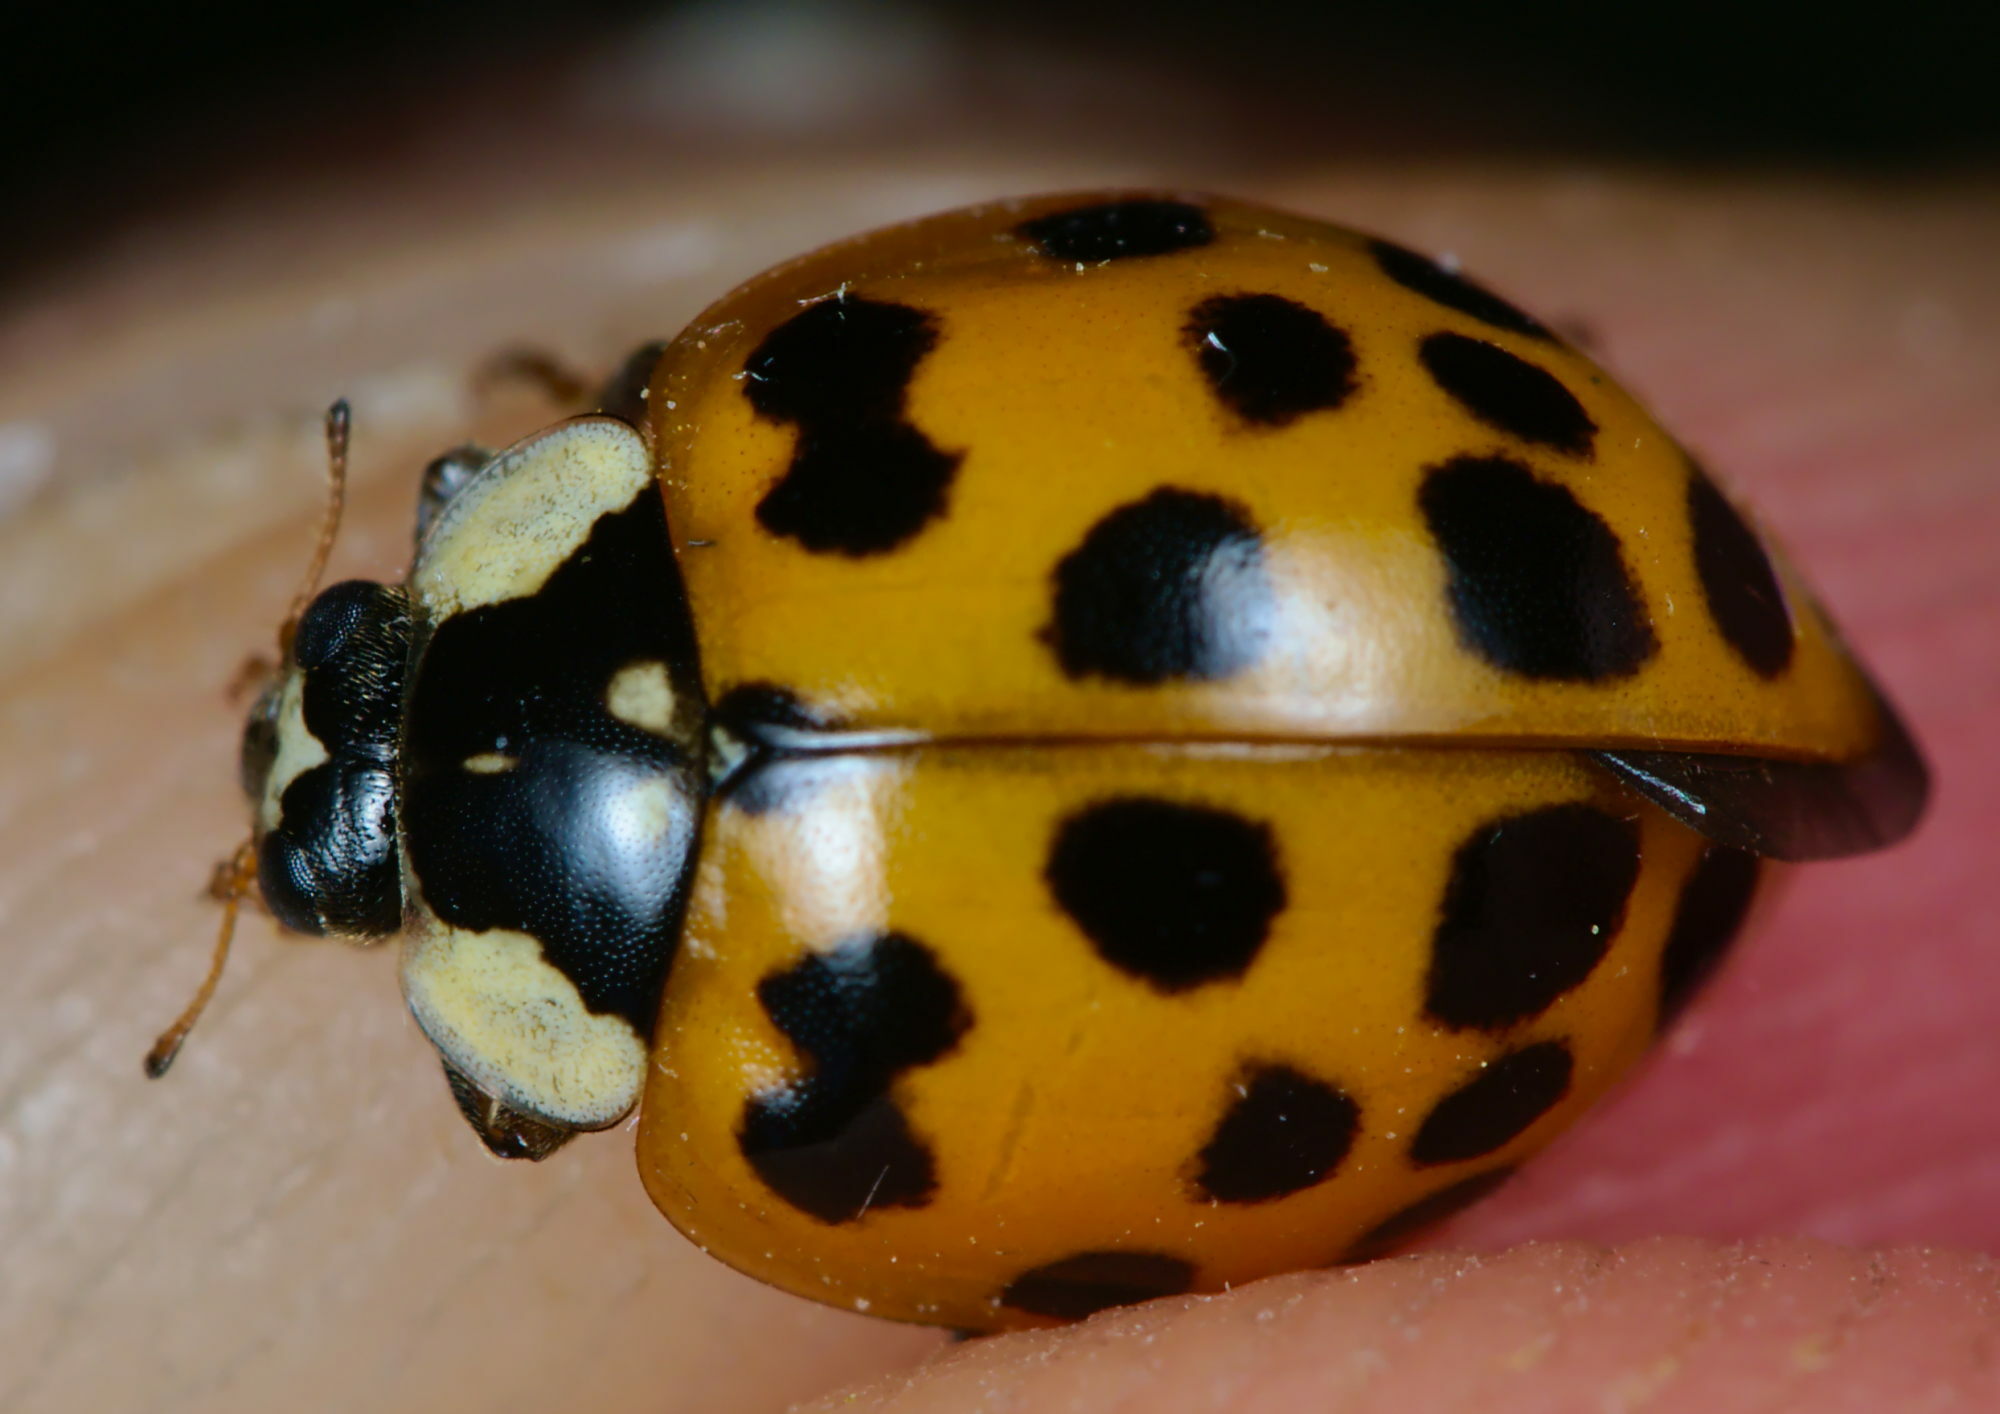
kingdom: Animalia
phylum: Arthropoda
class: Insecta
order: Coleoptera
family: Coccinellidae
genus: Harmonia
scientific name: Harmonia axyridis
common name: Harlequin ladybird
